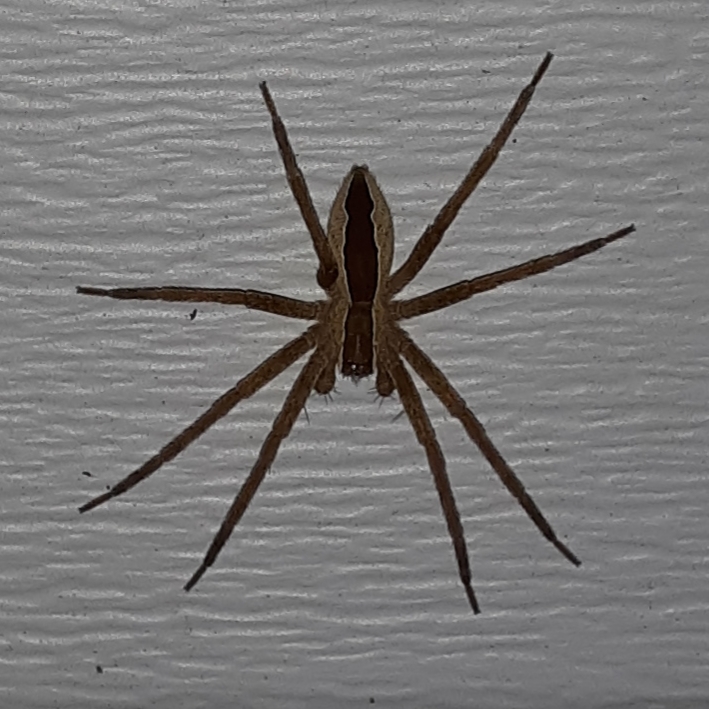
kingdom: Animalia
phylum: Arthropoda
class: Arachnida
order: Araneae
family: Pisauridae
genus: Pisaurina
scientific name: Pisaurina mira
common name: American nursery web spider
